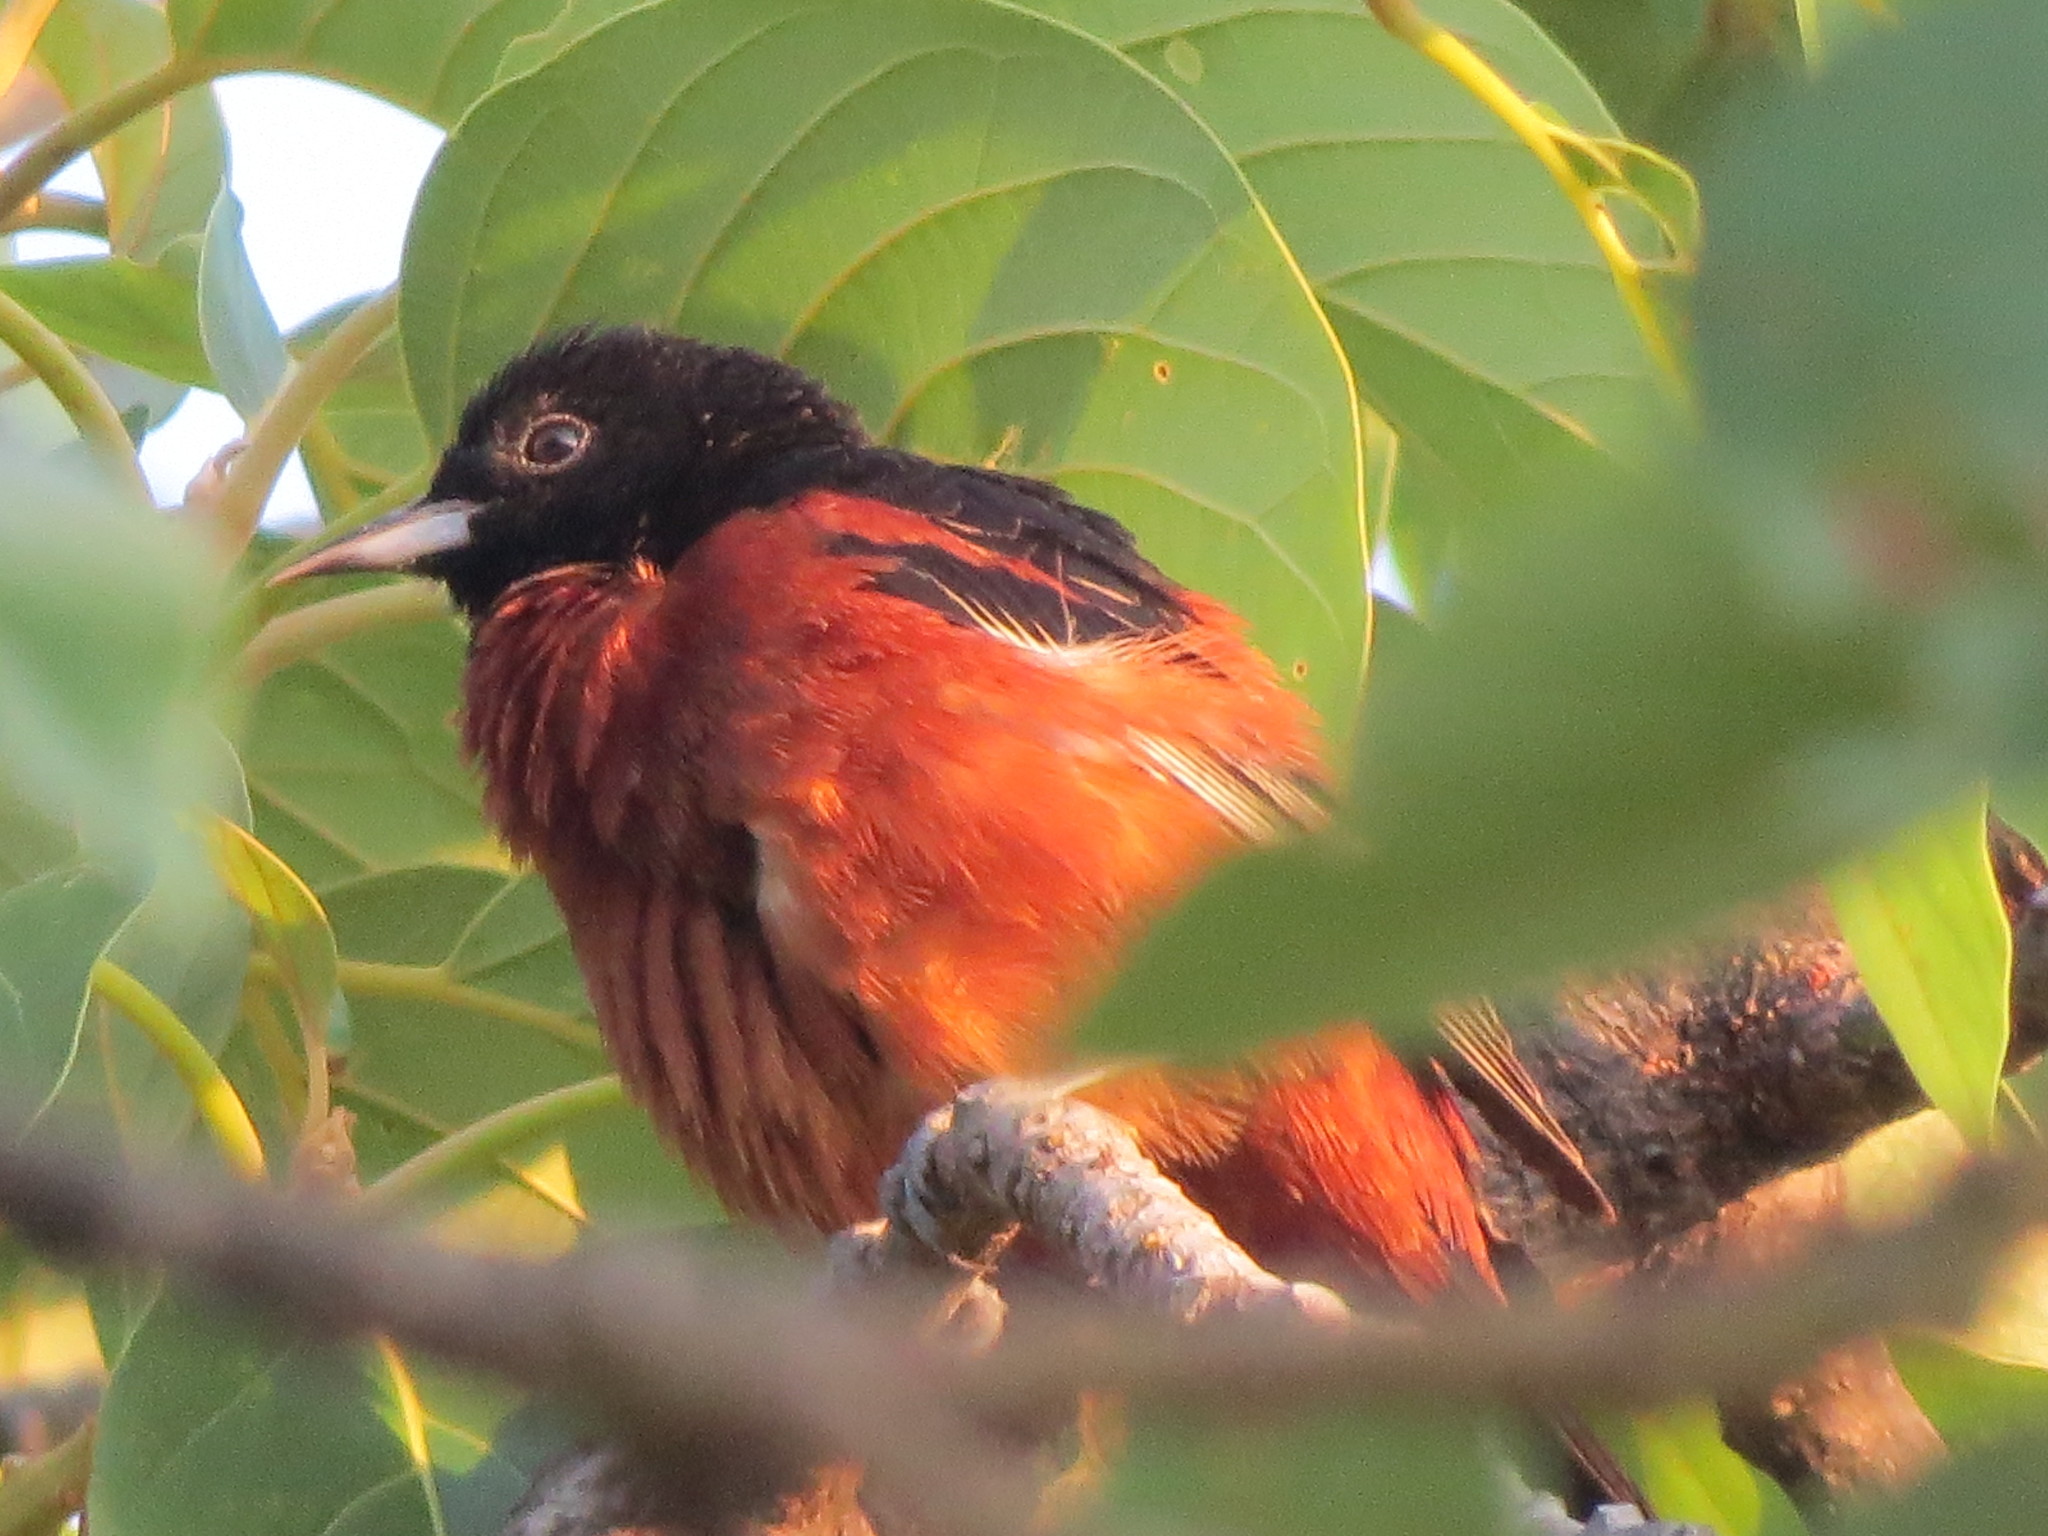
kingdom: Animalia
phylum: Chordata
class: Aves
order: Passeriformes
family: Icteridae
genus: Icterus
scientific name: Icterus spurius
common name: Orchard oriole
